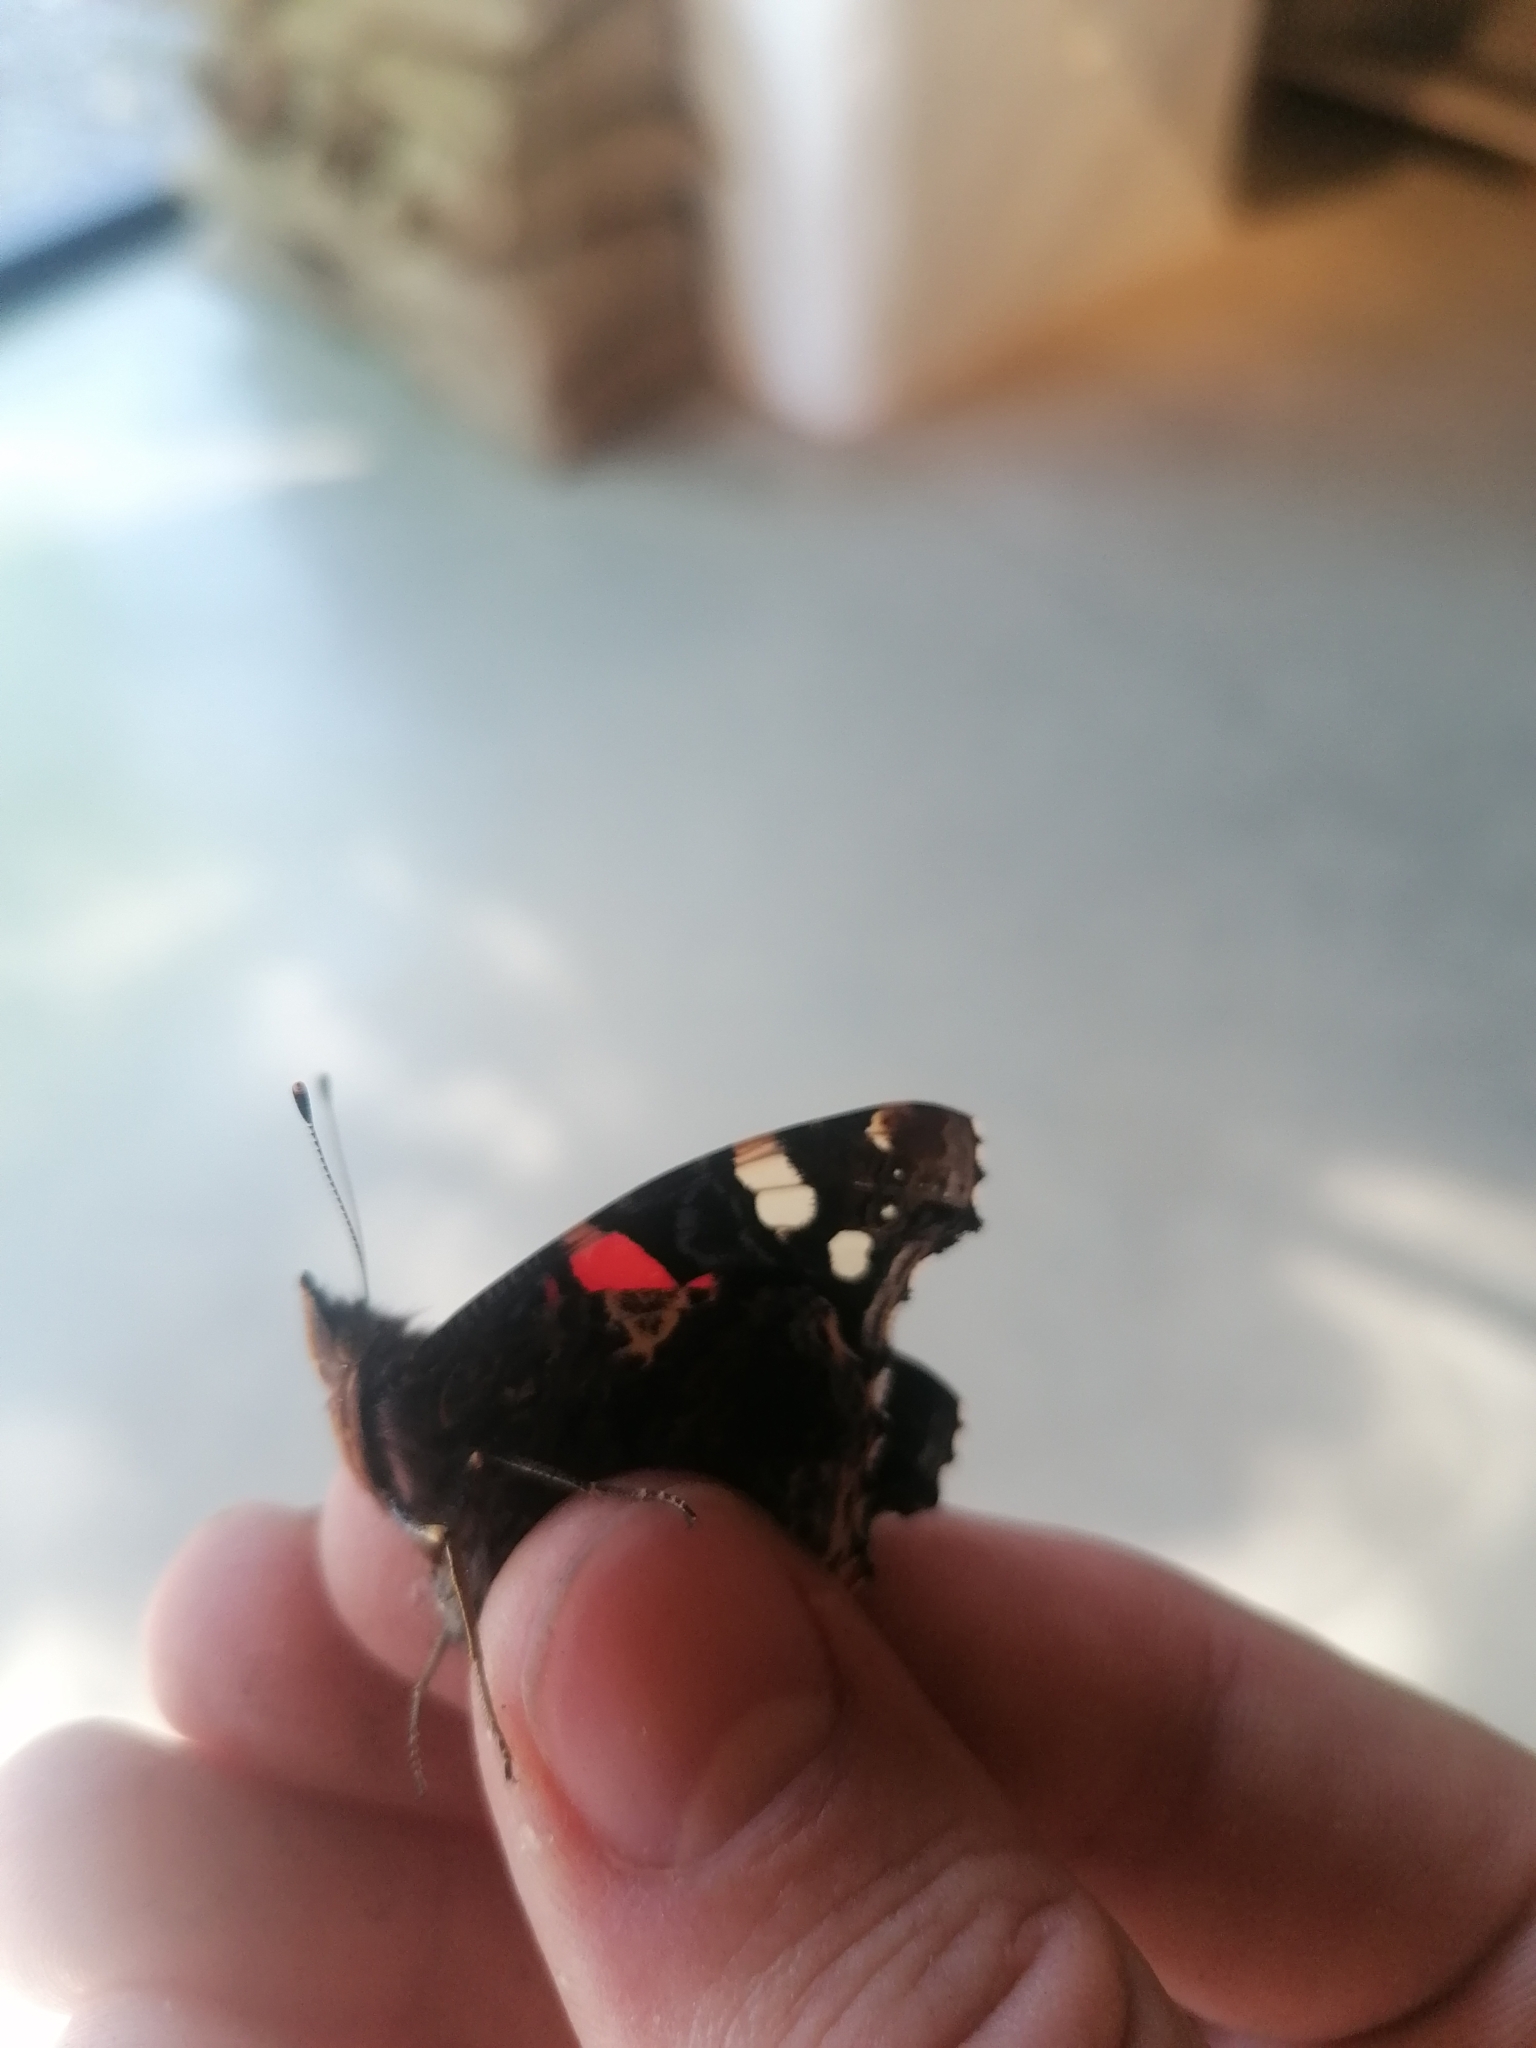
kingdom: Animalia
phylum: Arthropoda
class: Insecta
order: Lepidoptera
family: Nymphalidae
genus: Vanessa
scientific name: Vanessa atalanta
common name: Red admiral
